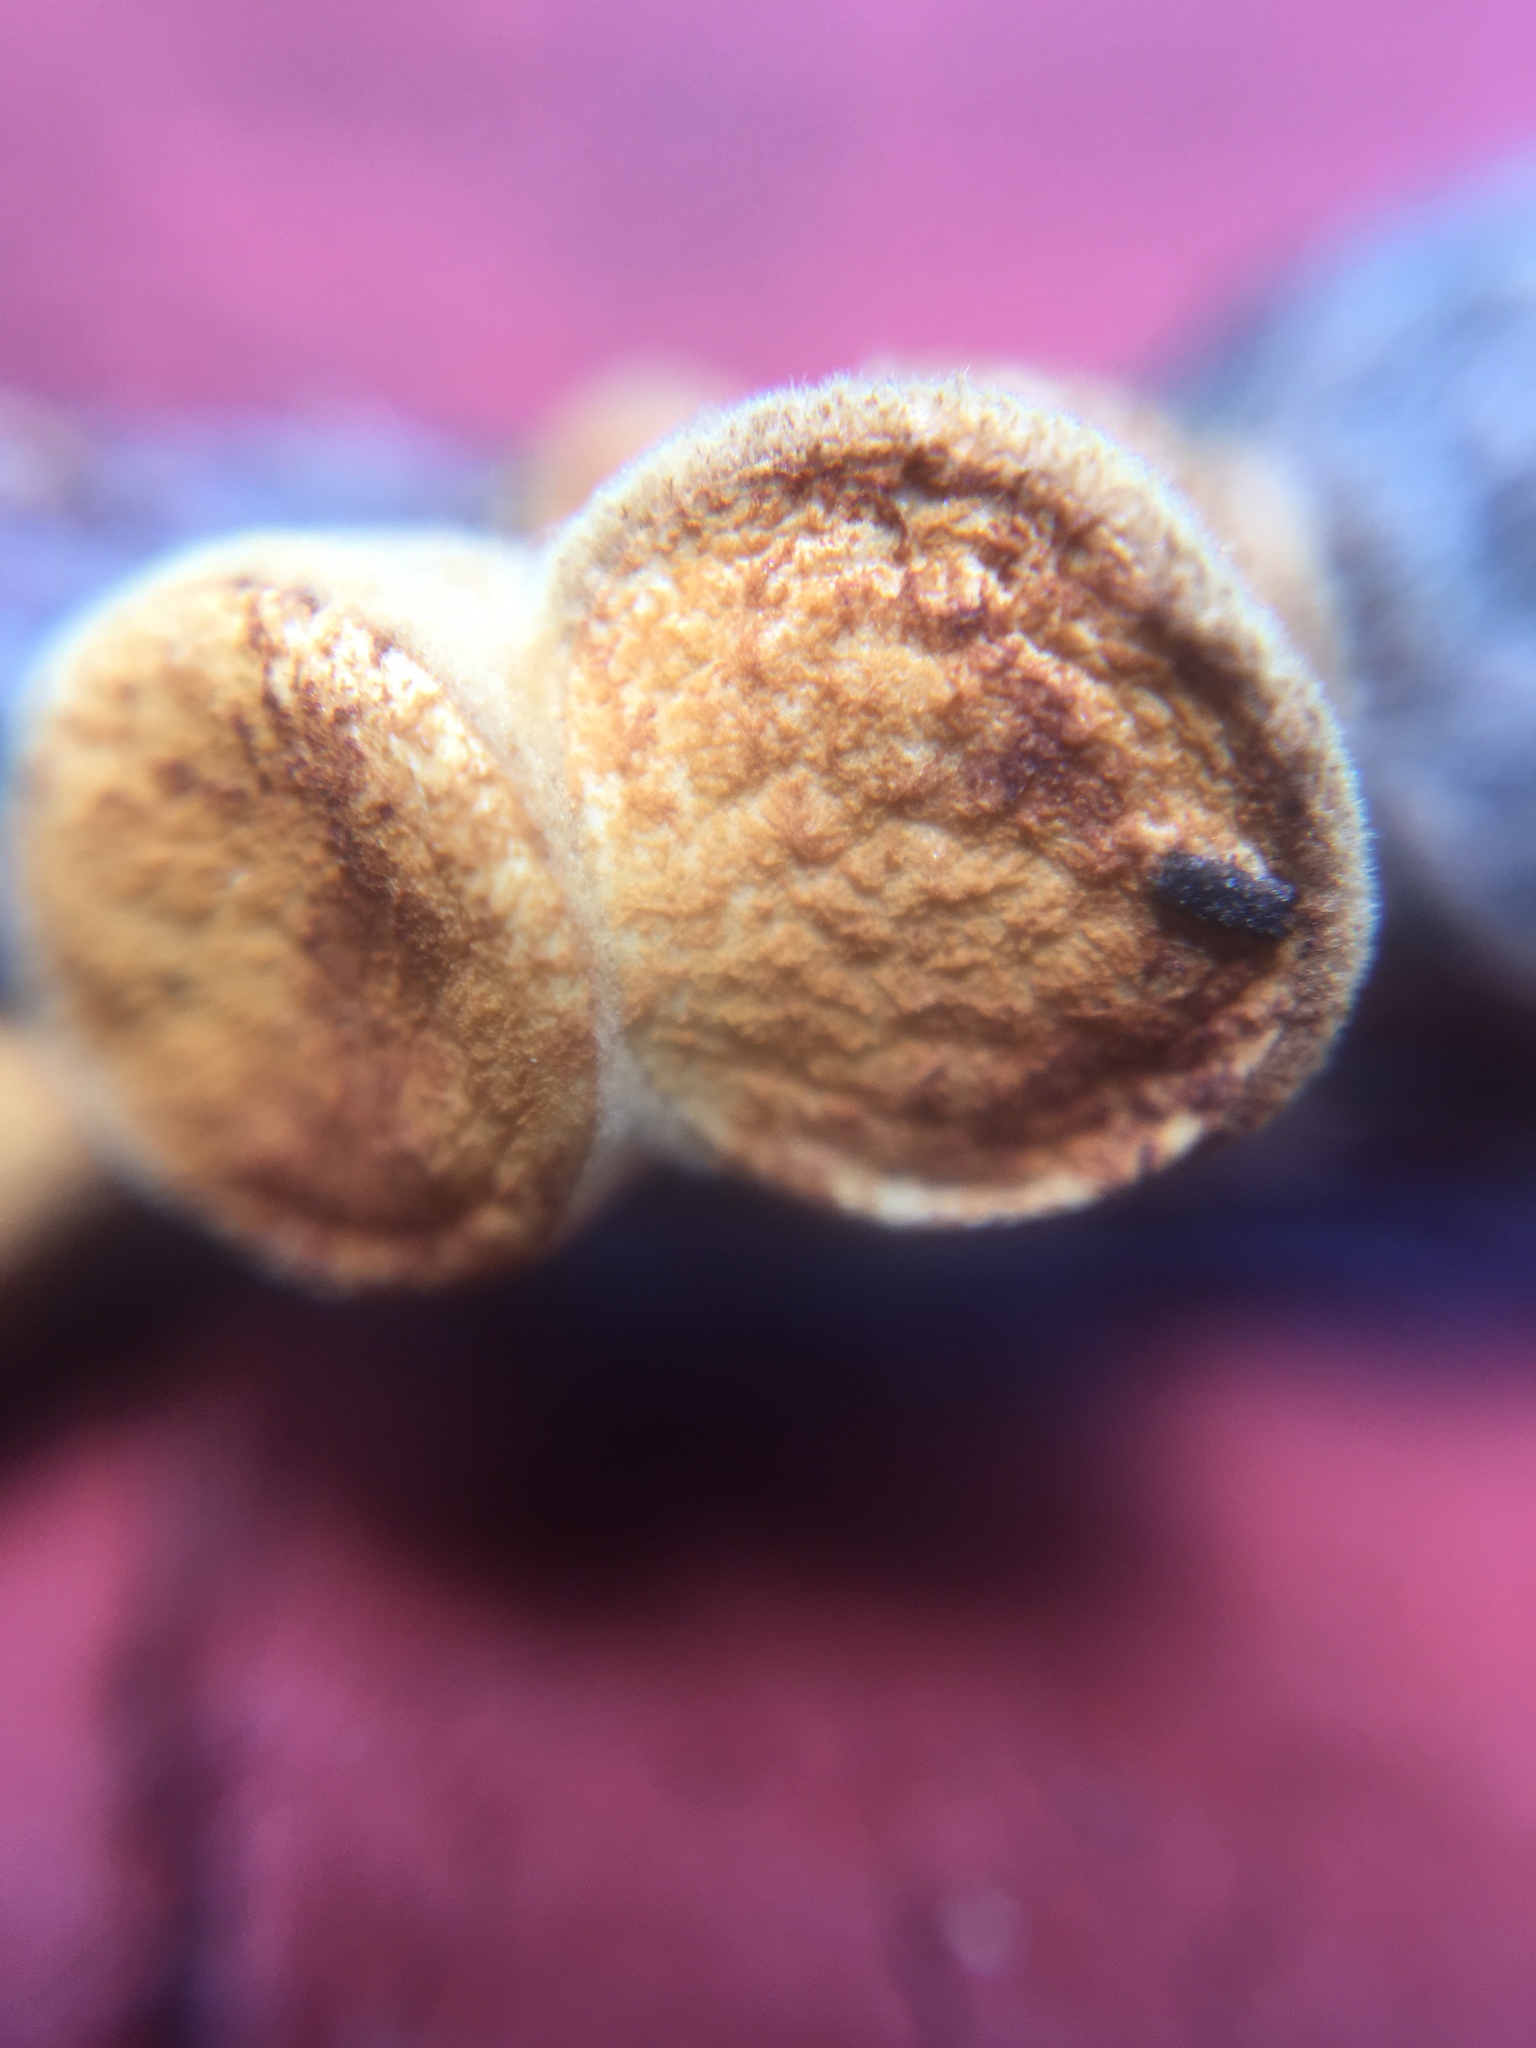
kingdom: Fungi
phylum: Basidiomycota
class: Agaricomycetes
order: Agaricales
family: Nidulariaceae
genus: Crucibulum
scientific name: Crucibulum laeve
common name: Common bird's nest
